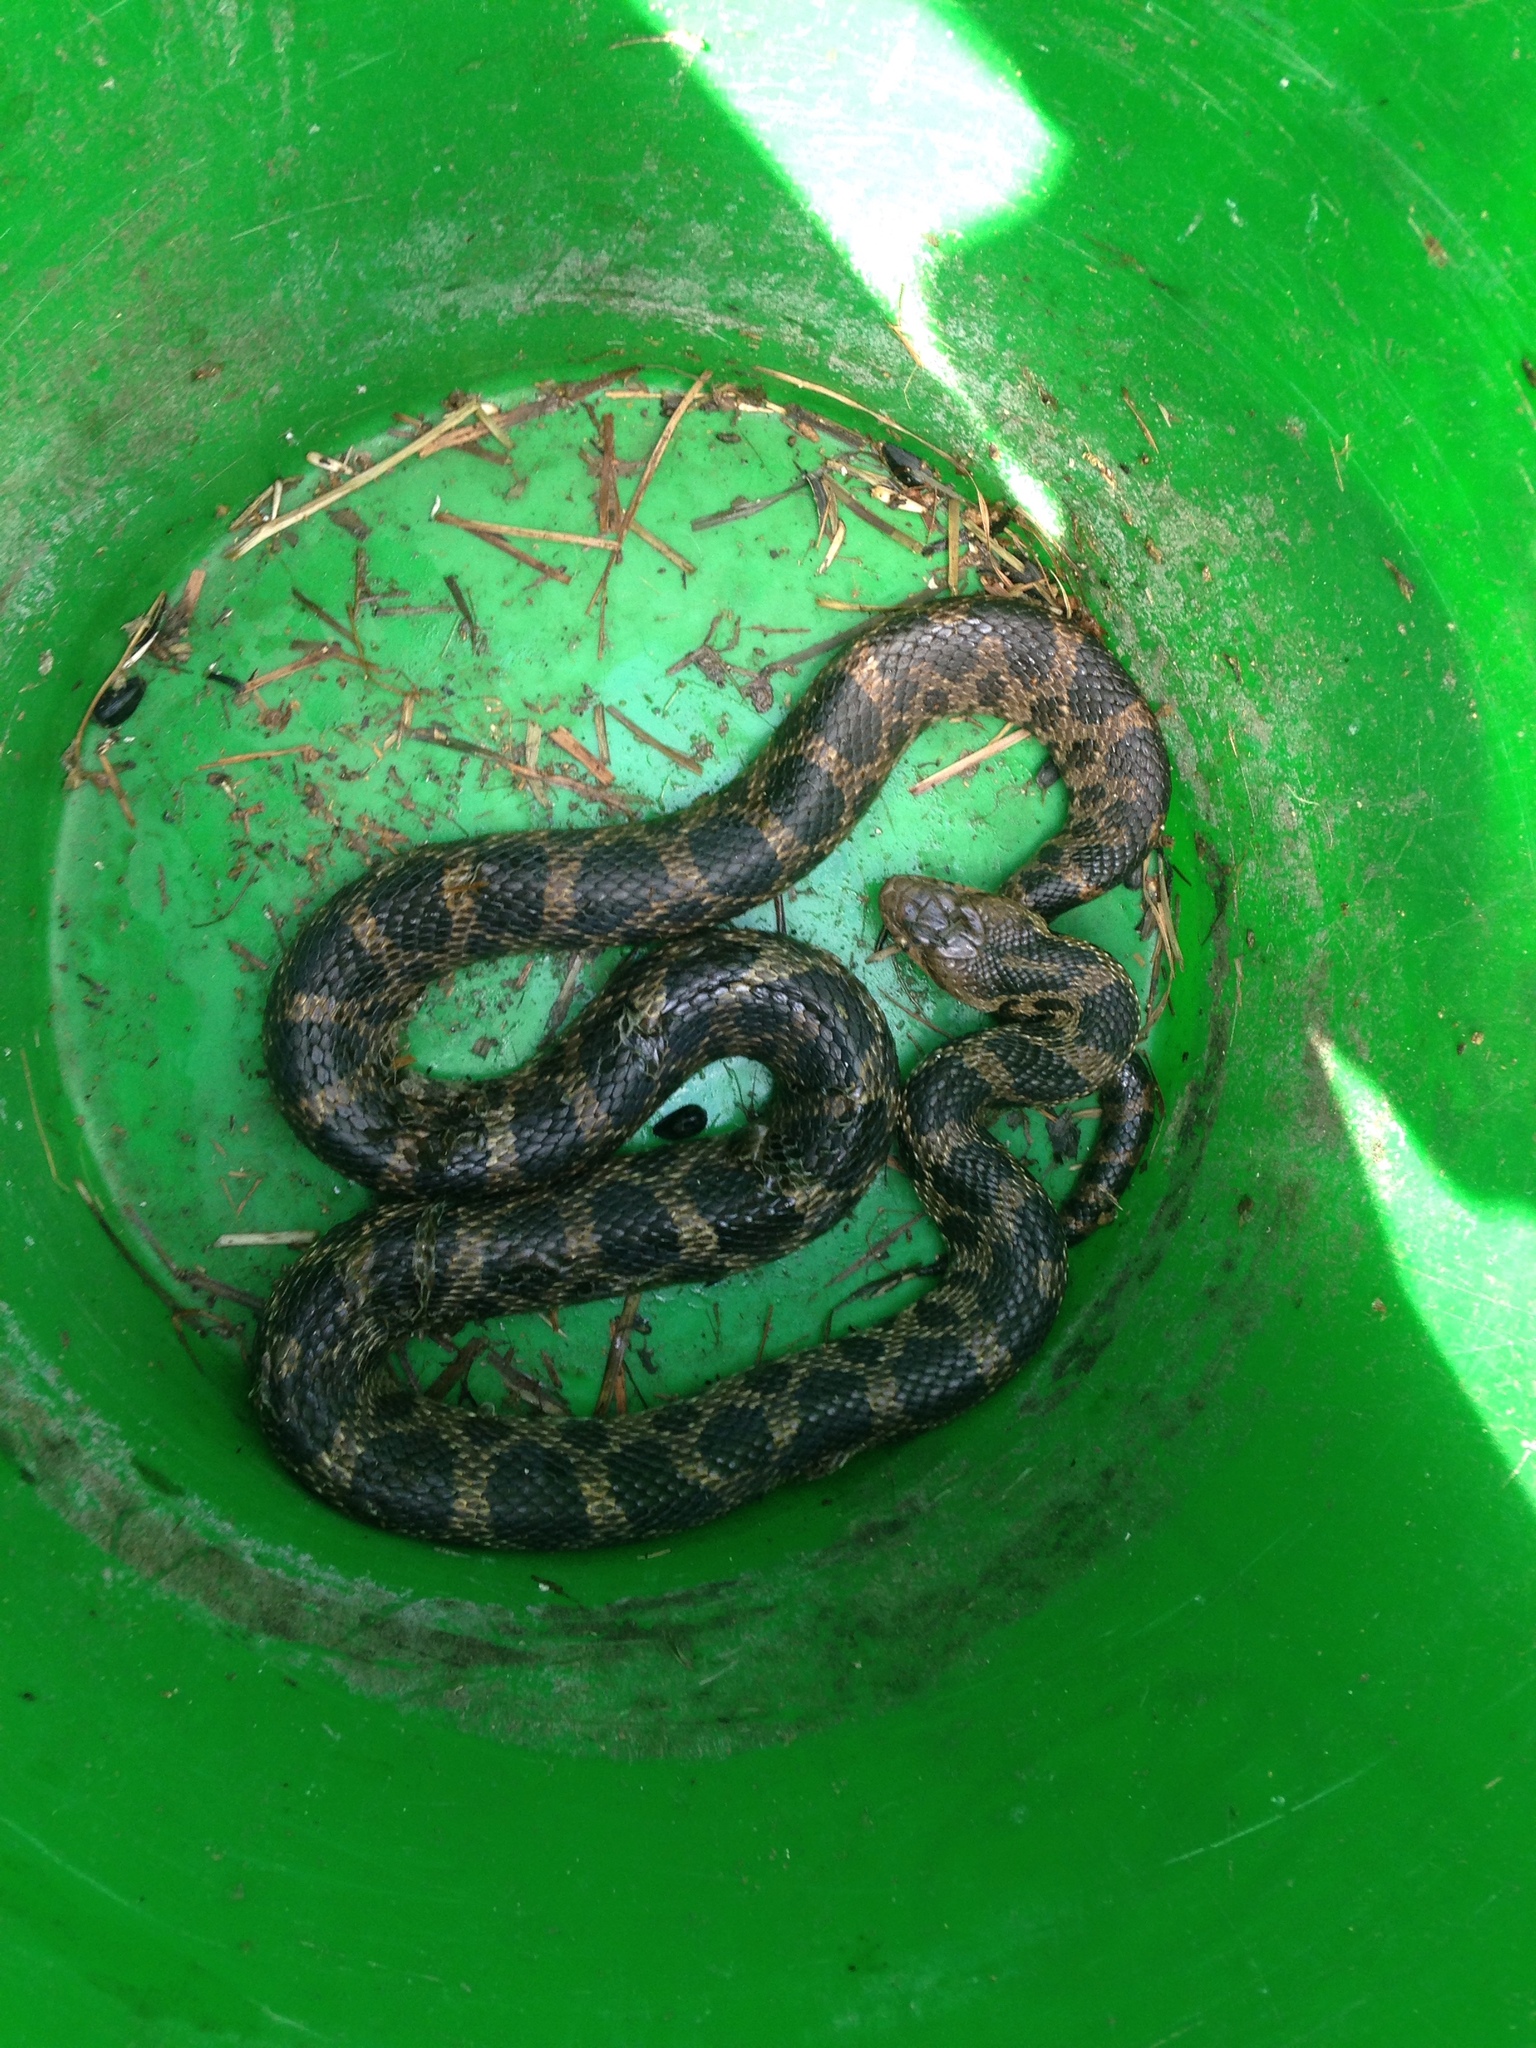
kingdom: Animalia
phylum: Chordata
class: Squamata
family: Colubridae
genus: Pantherophis
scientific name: Pantherophis vulpinus
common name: Eastern fox snake
